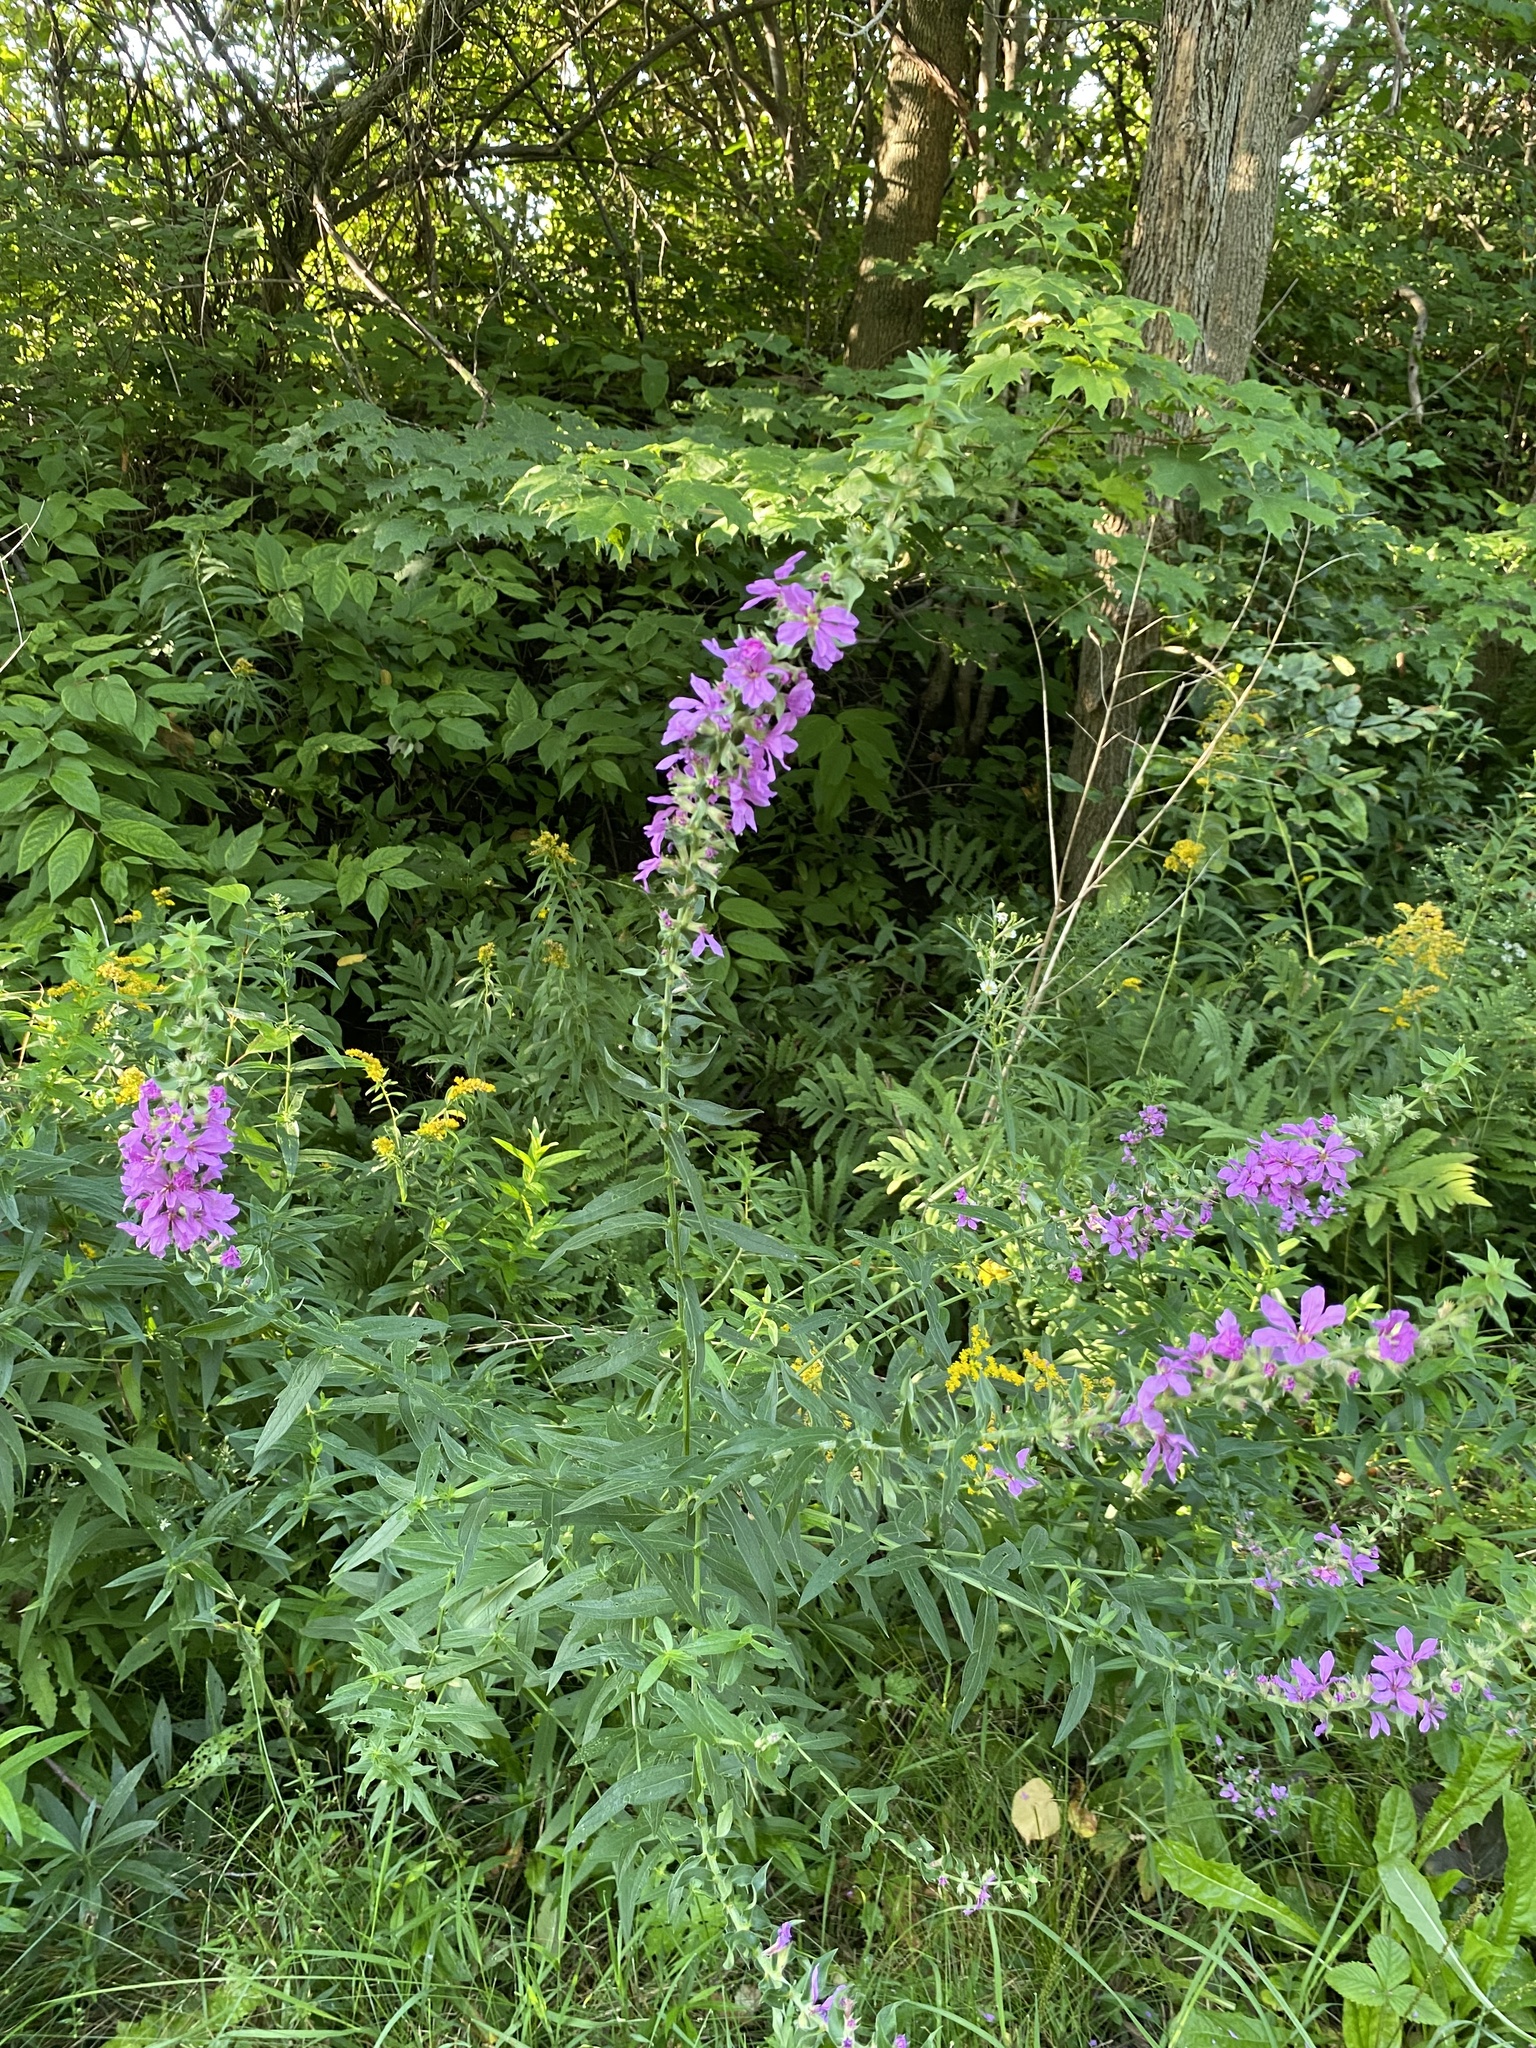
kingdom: Plantae
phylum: Tracheophyta
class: Magnoliopsida
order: Myrtales
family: Lythraceae
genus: Lythrum
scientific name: Lythrum salicaria
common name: Purple loosestrife
